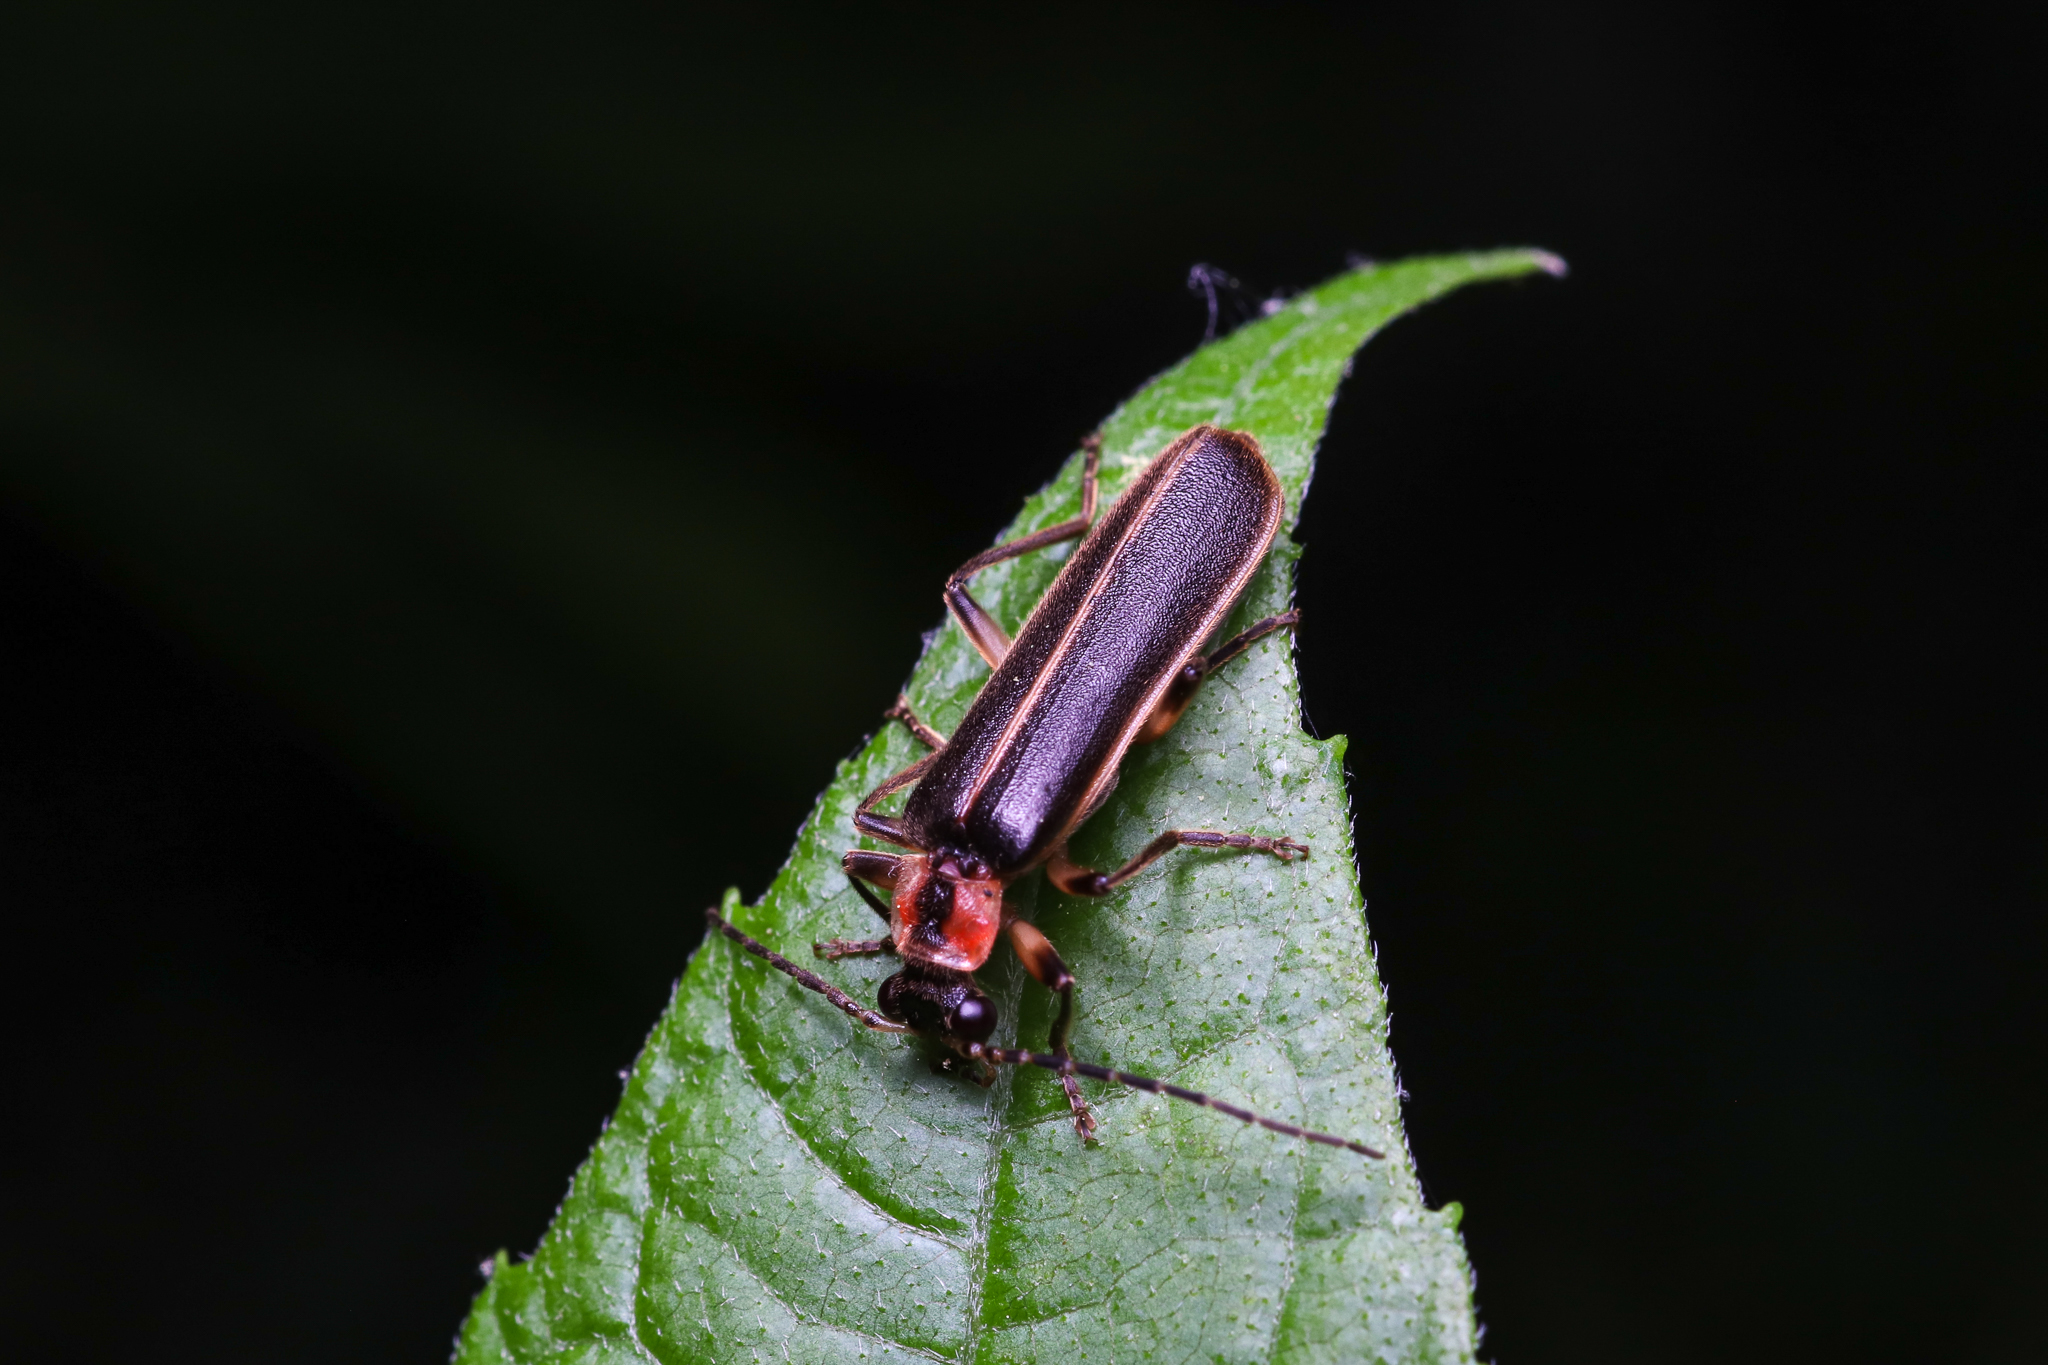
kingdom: Animalia
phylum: Arthropoda
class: Insecta
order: Coleoptera
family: Cantharidae
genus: Podabrus
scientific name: Podabrus basilaris
